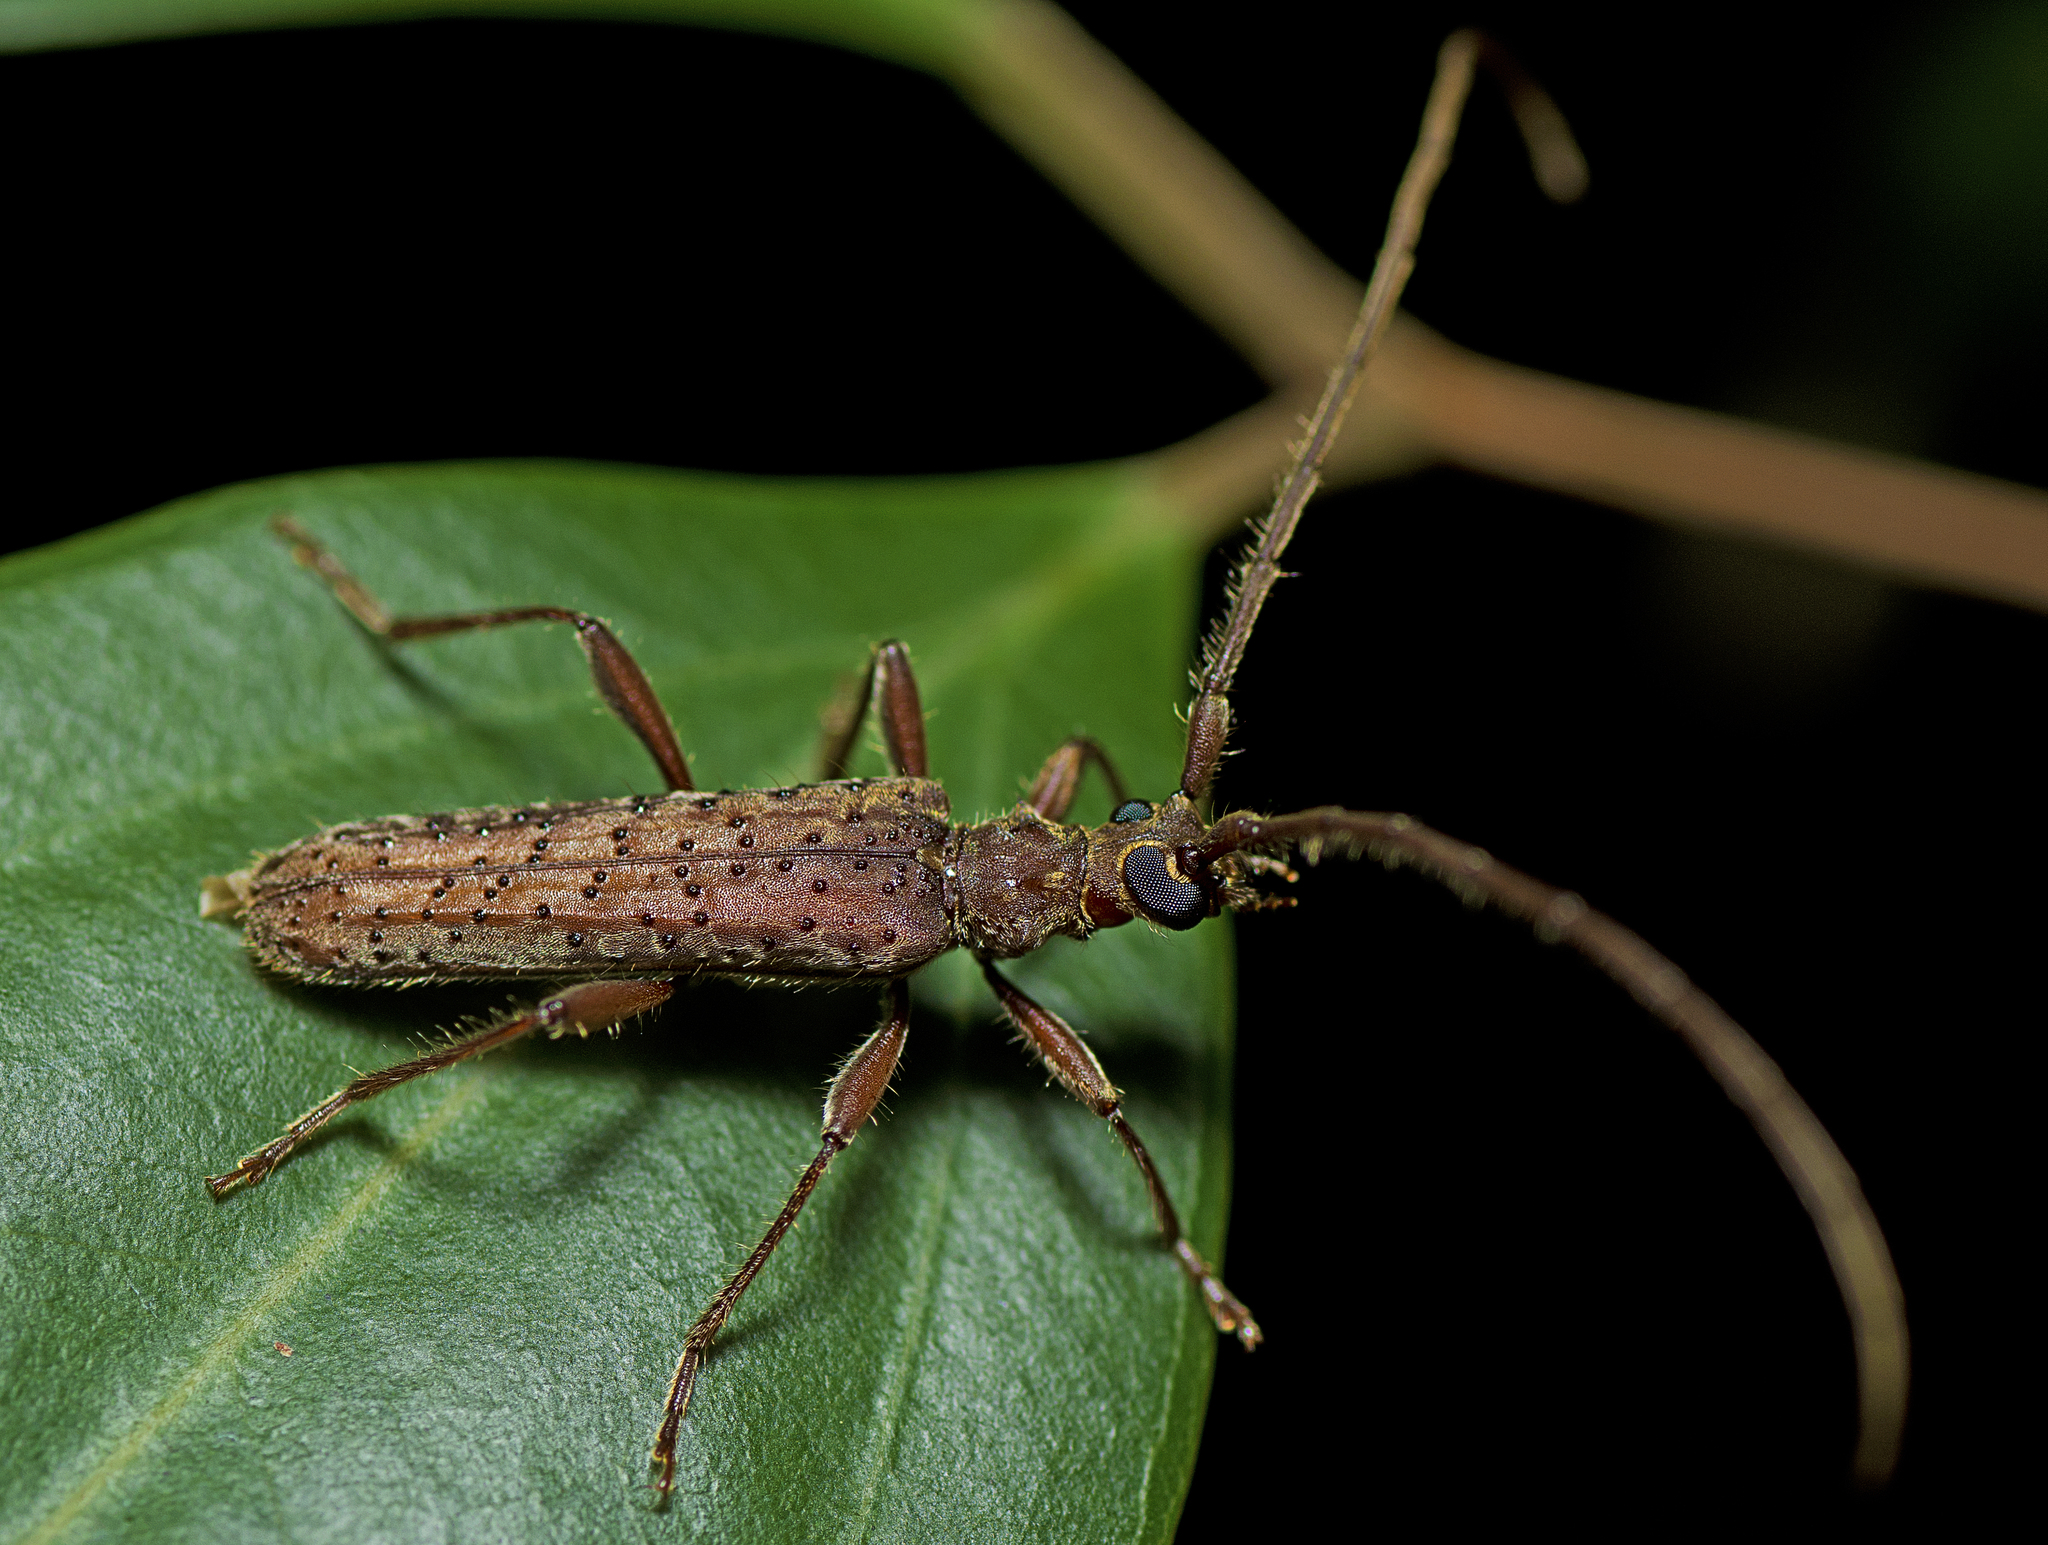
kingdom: Animalia
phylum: Arthropoda
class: Insecta
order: Coleoptera
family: Cerambycidae
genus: Phlyctaenodes
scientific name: Phlyctaenodes pustulatus
